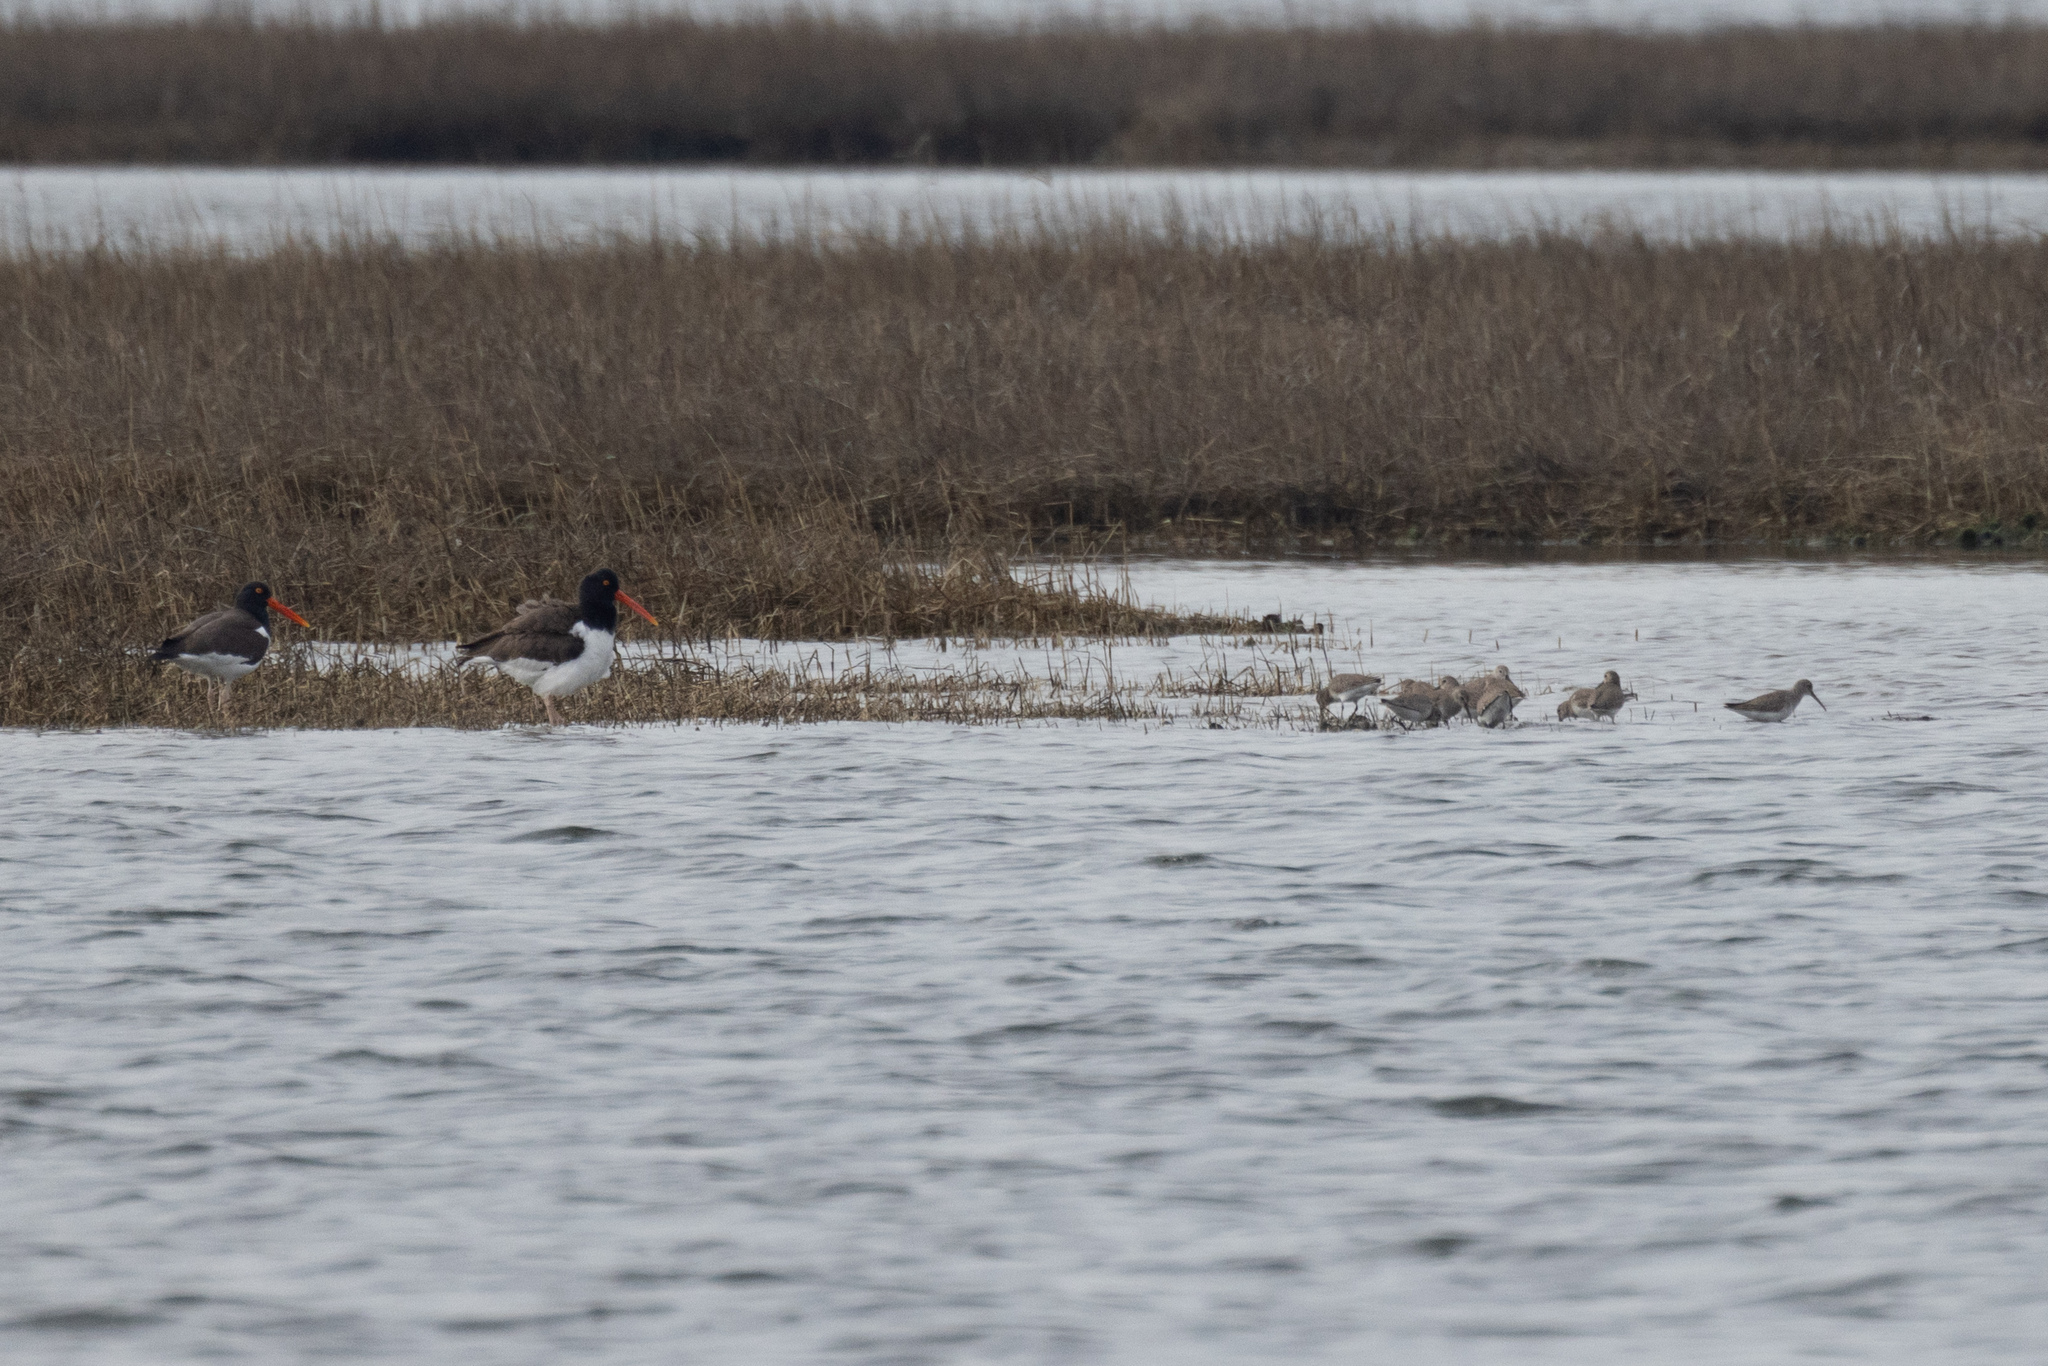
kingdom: Animalia
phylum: Chordata
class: Aves
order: Charadriiformes
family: Scolopacidae
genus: Calidris
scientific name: Calidris alpina
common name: Dunlin
